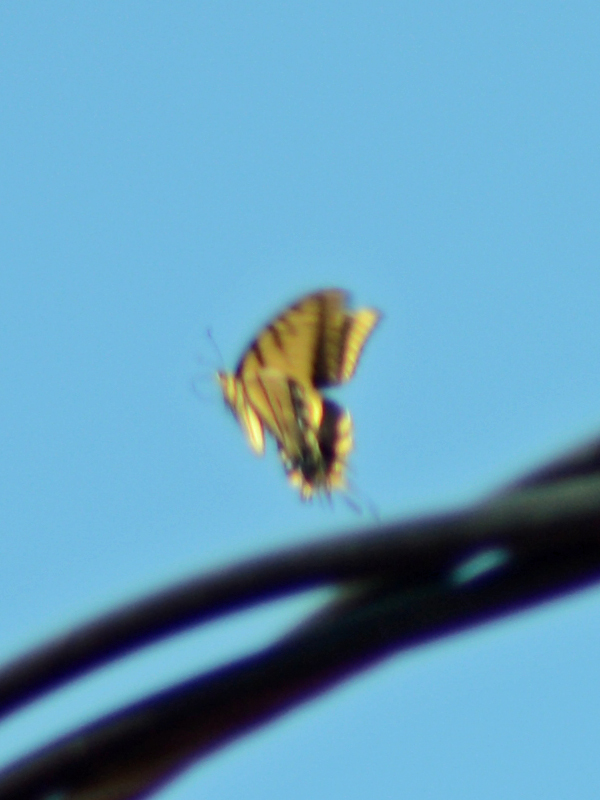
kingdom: Animalia
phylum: Arthropoda
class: Insecta
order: Lepidoptera
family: Papilionidae
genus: Papilio
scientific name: Papilio multicaudata
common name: Two-tailed tiger swallowtail
